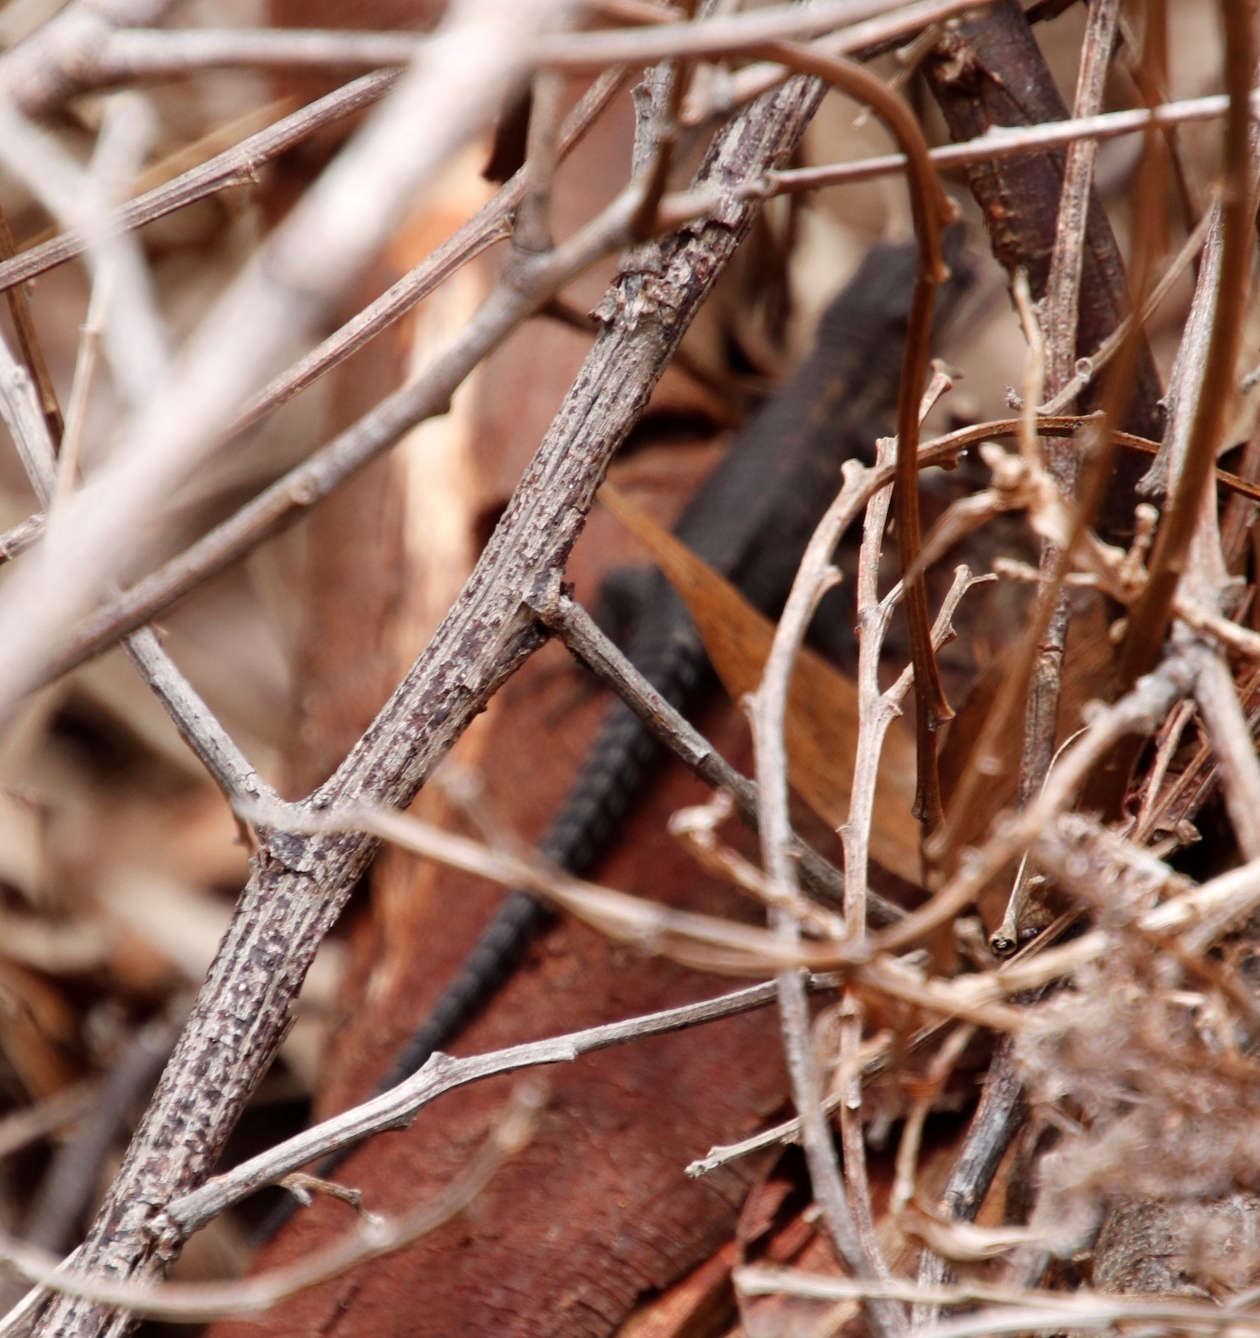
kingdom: Animalia
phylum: Chordata
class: Squamata
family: Cordylidae
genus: Cordylus
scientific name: Cordylus niger
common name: Black girdled lizard
